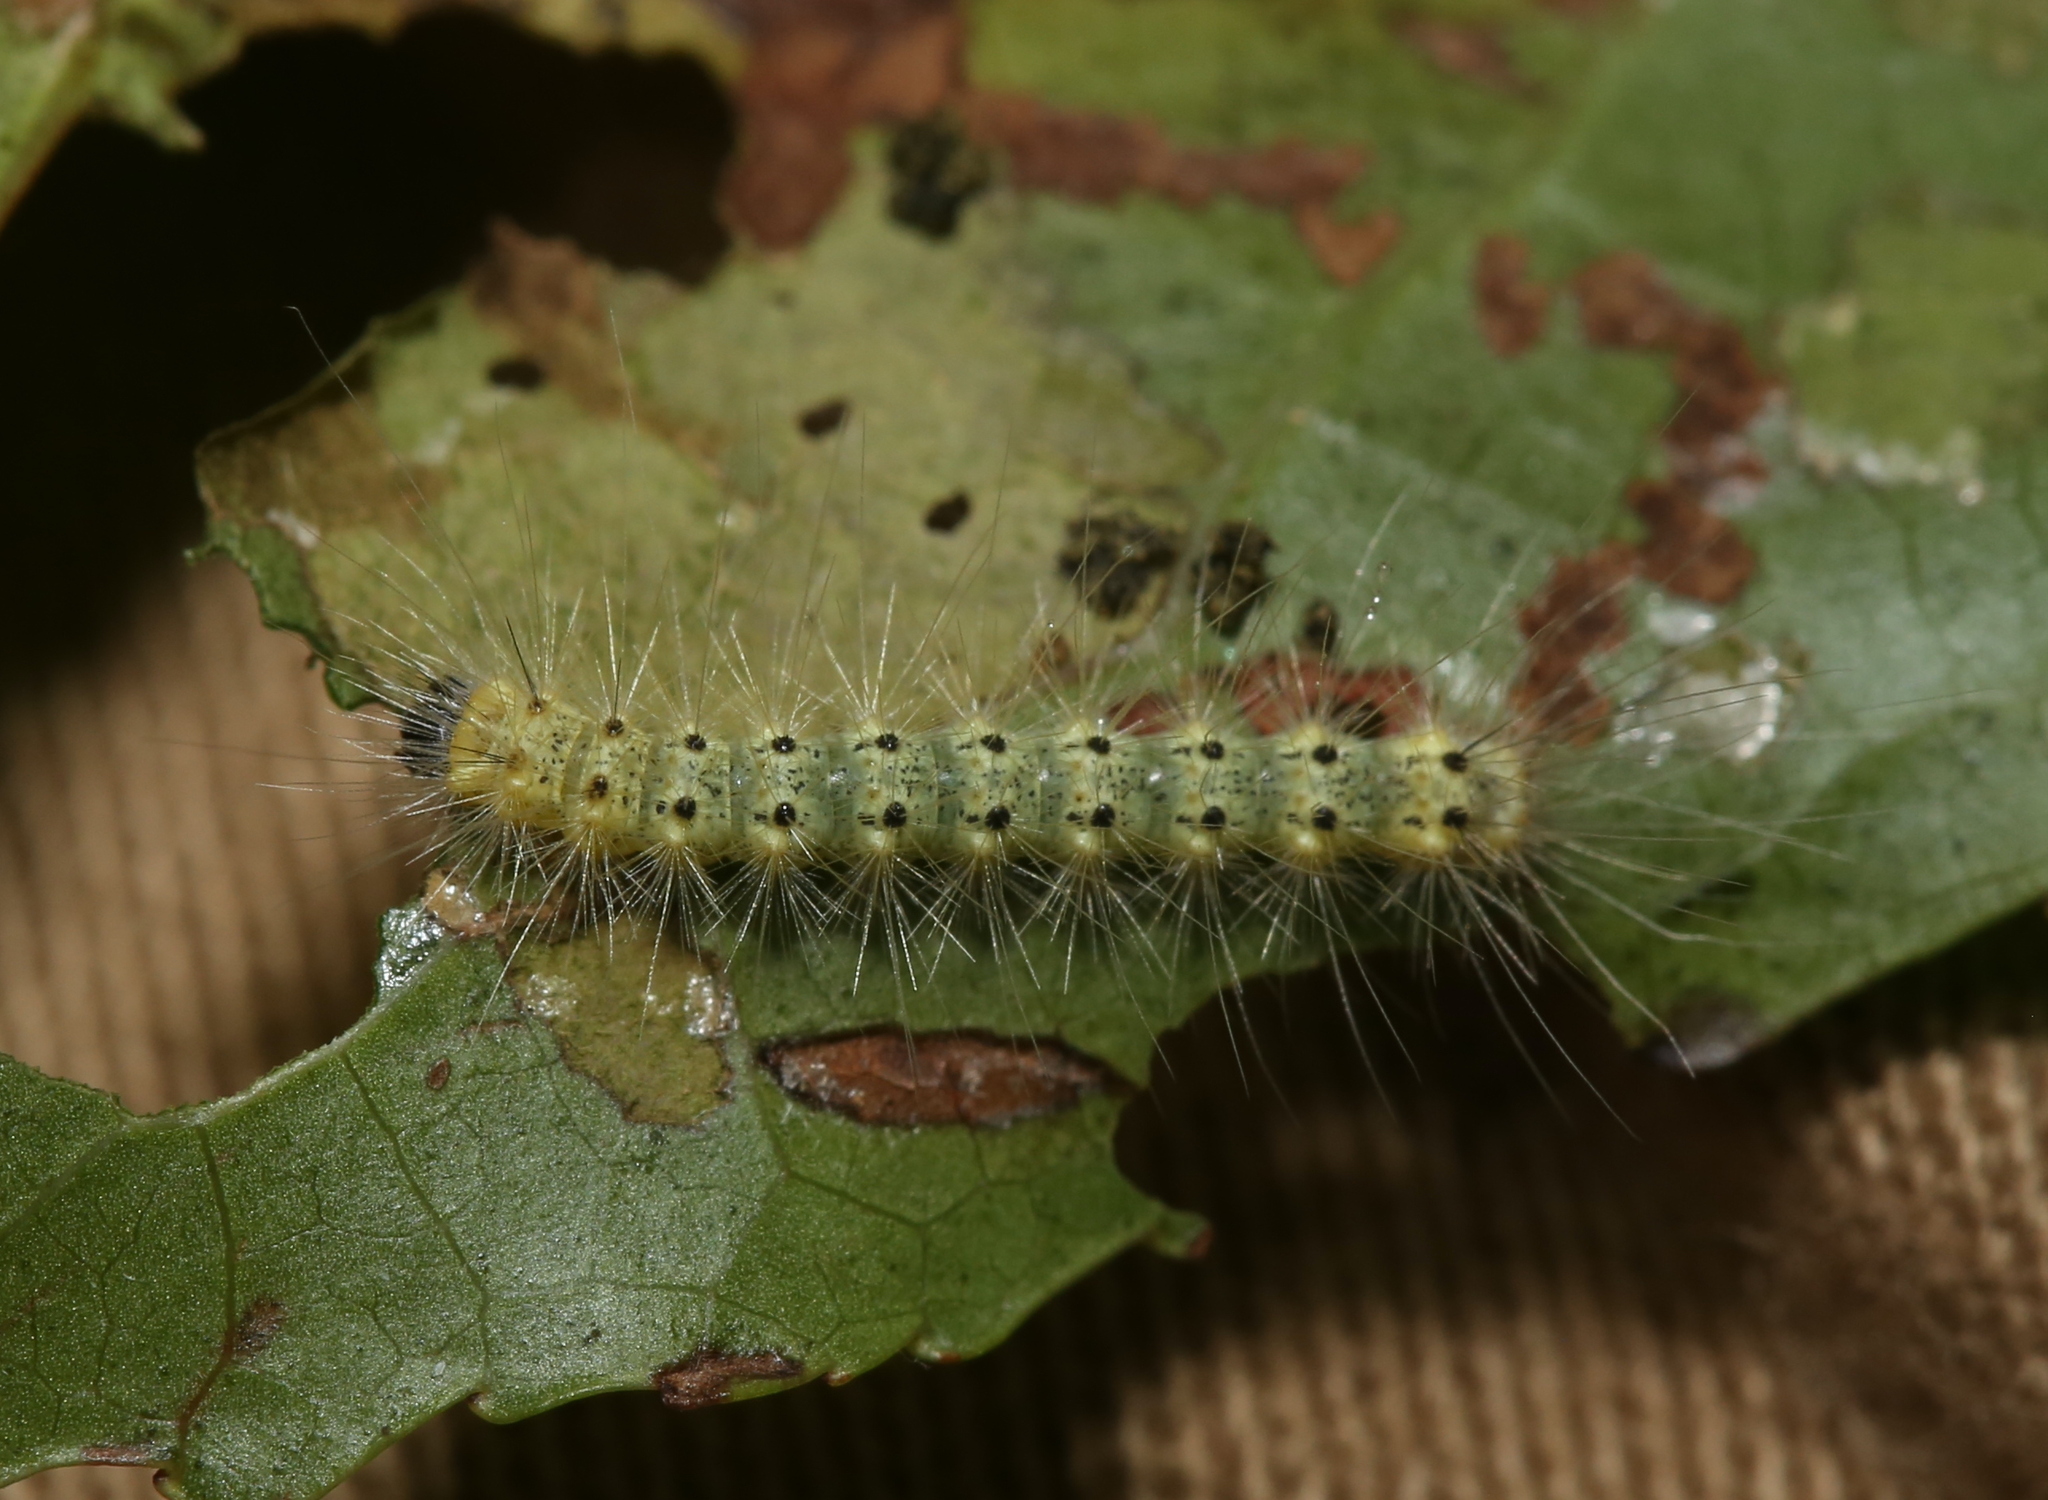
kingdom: Animalia
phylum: Arthropoda
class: Insecta
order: Lepidoptera
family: Erebidae
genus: Hyphantria
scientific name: Hyphantria cunea
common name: American white moth
